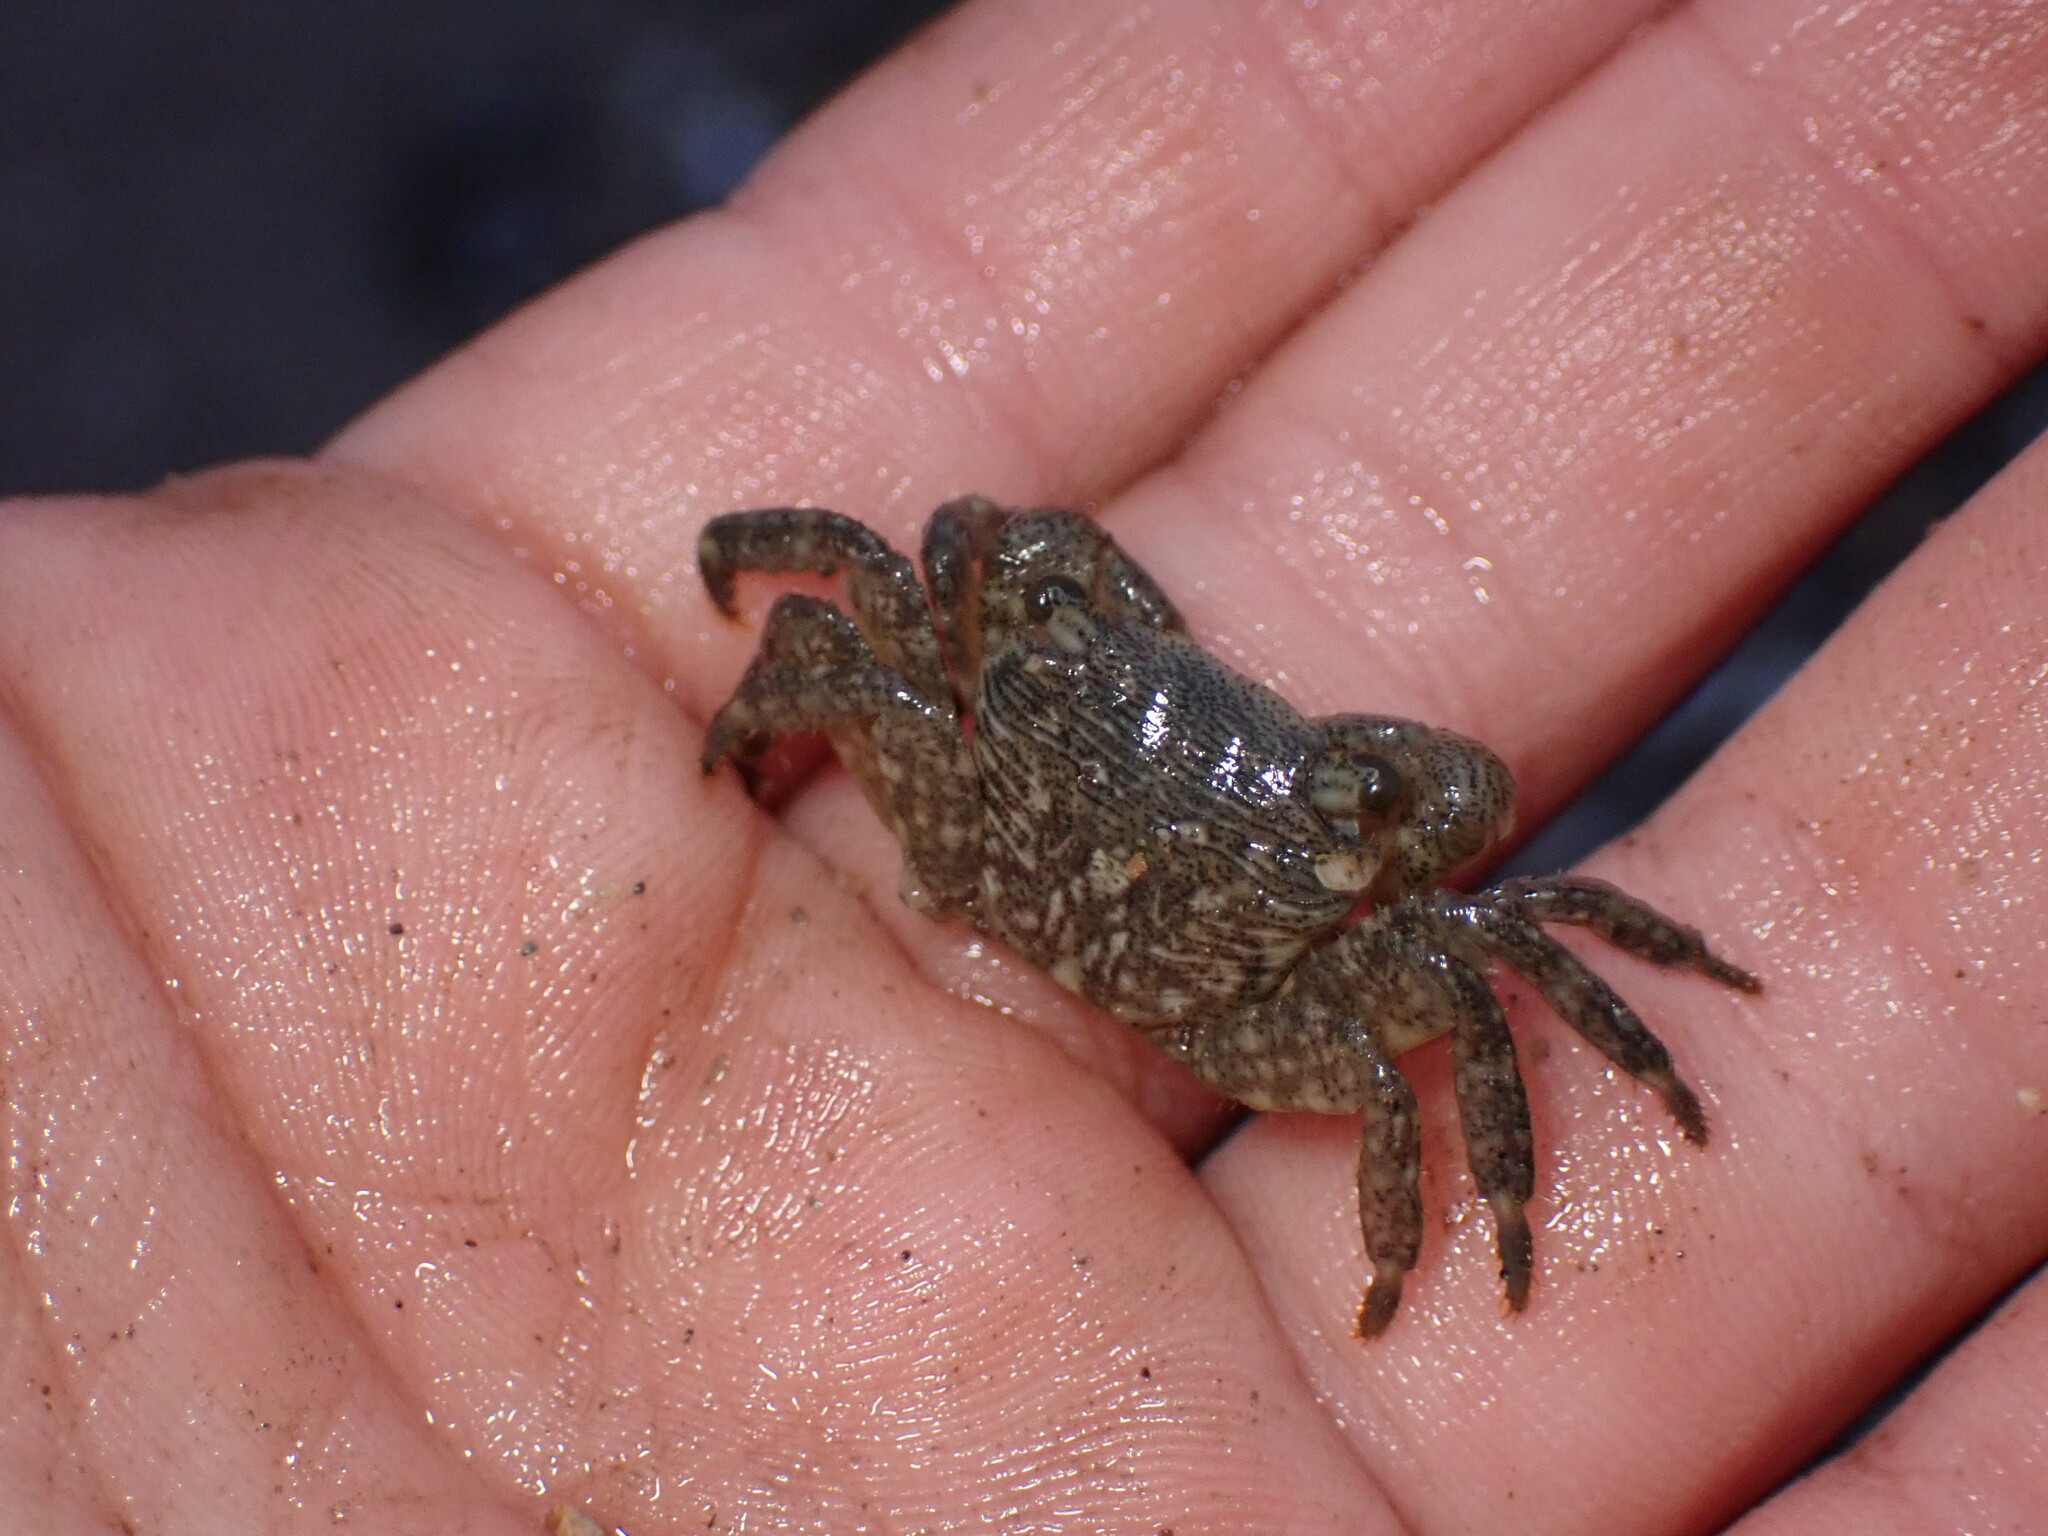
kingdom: Animalia
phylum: Arthropoda
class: Malacostraca
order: Decapoda
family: Grapsidae
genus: Pachygrapsus
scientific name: Pachygrapsus crassipes
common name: Striped shore crab
